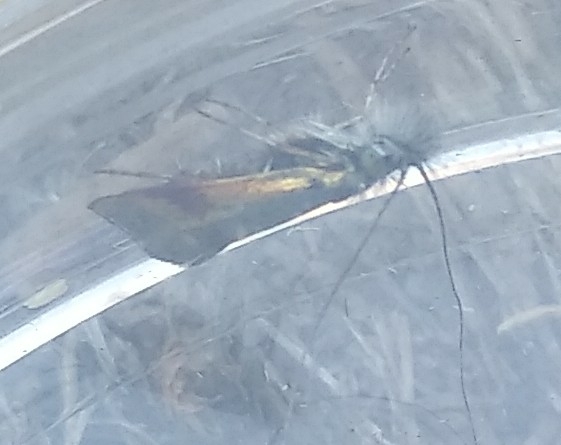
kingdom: Animalia
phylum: Arthropoda
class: Insecta
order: Lepidoptera
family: Adelidae
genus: Nemophora
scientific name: Nemophora barbatella
